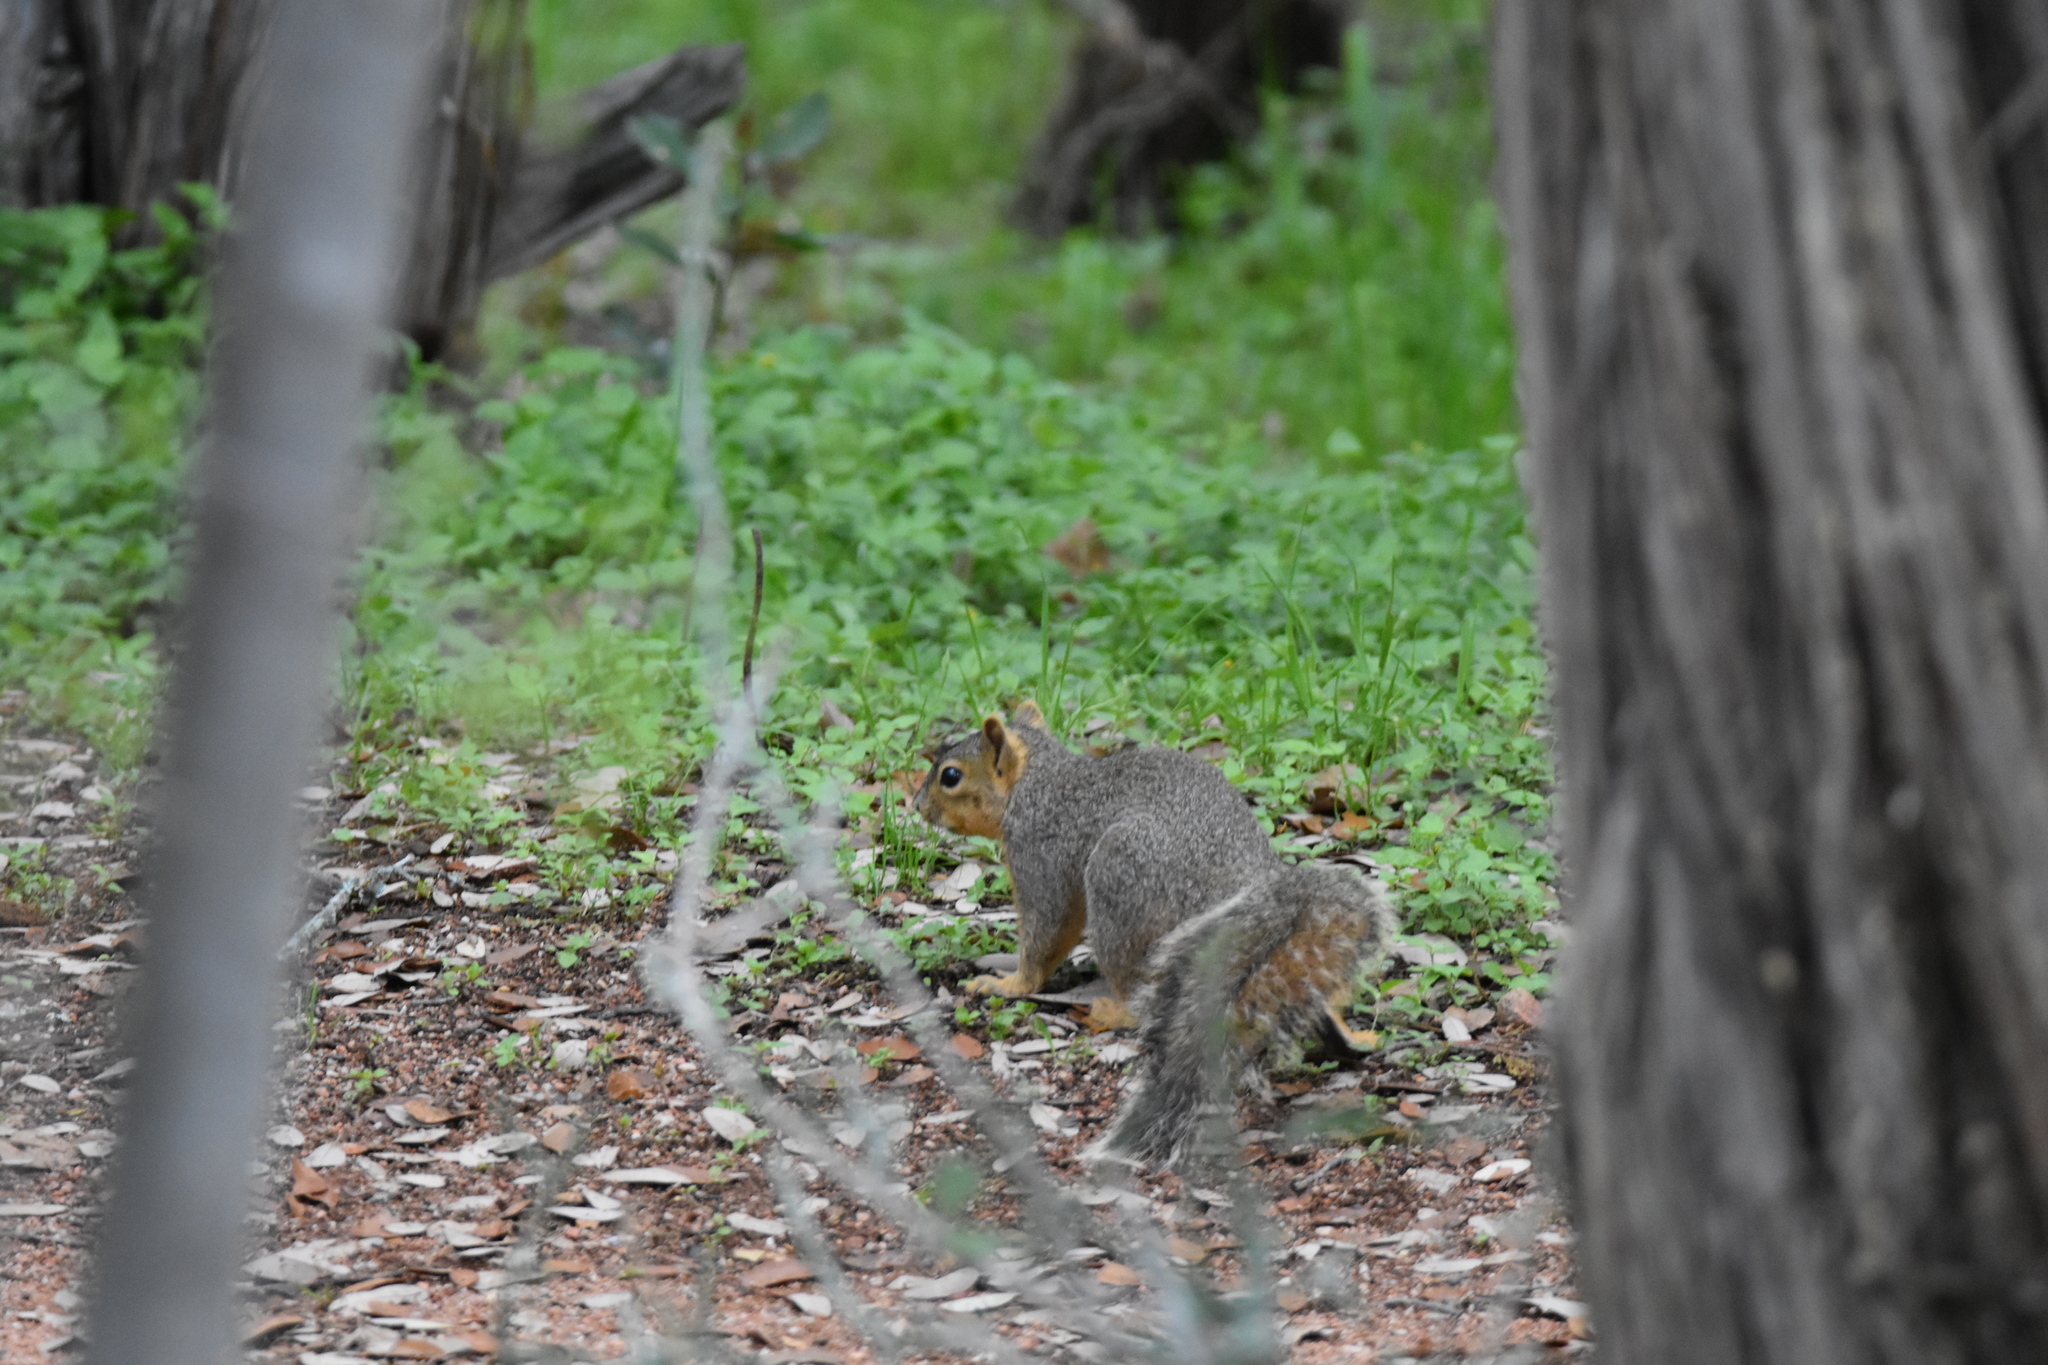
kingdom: Animalia
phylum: Chordata
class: Mammalia
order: Rodentia
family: Sciuridae
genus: Sciurus
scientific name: Sciurus niger
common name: Fox squirrel
